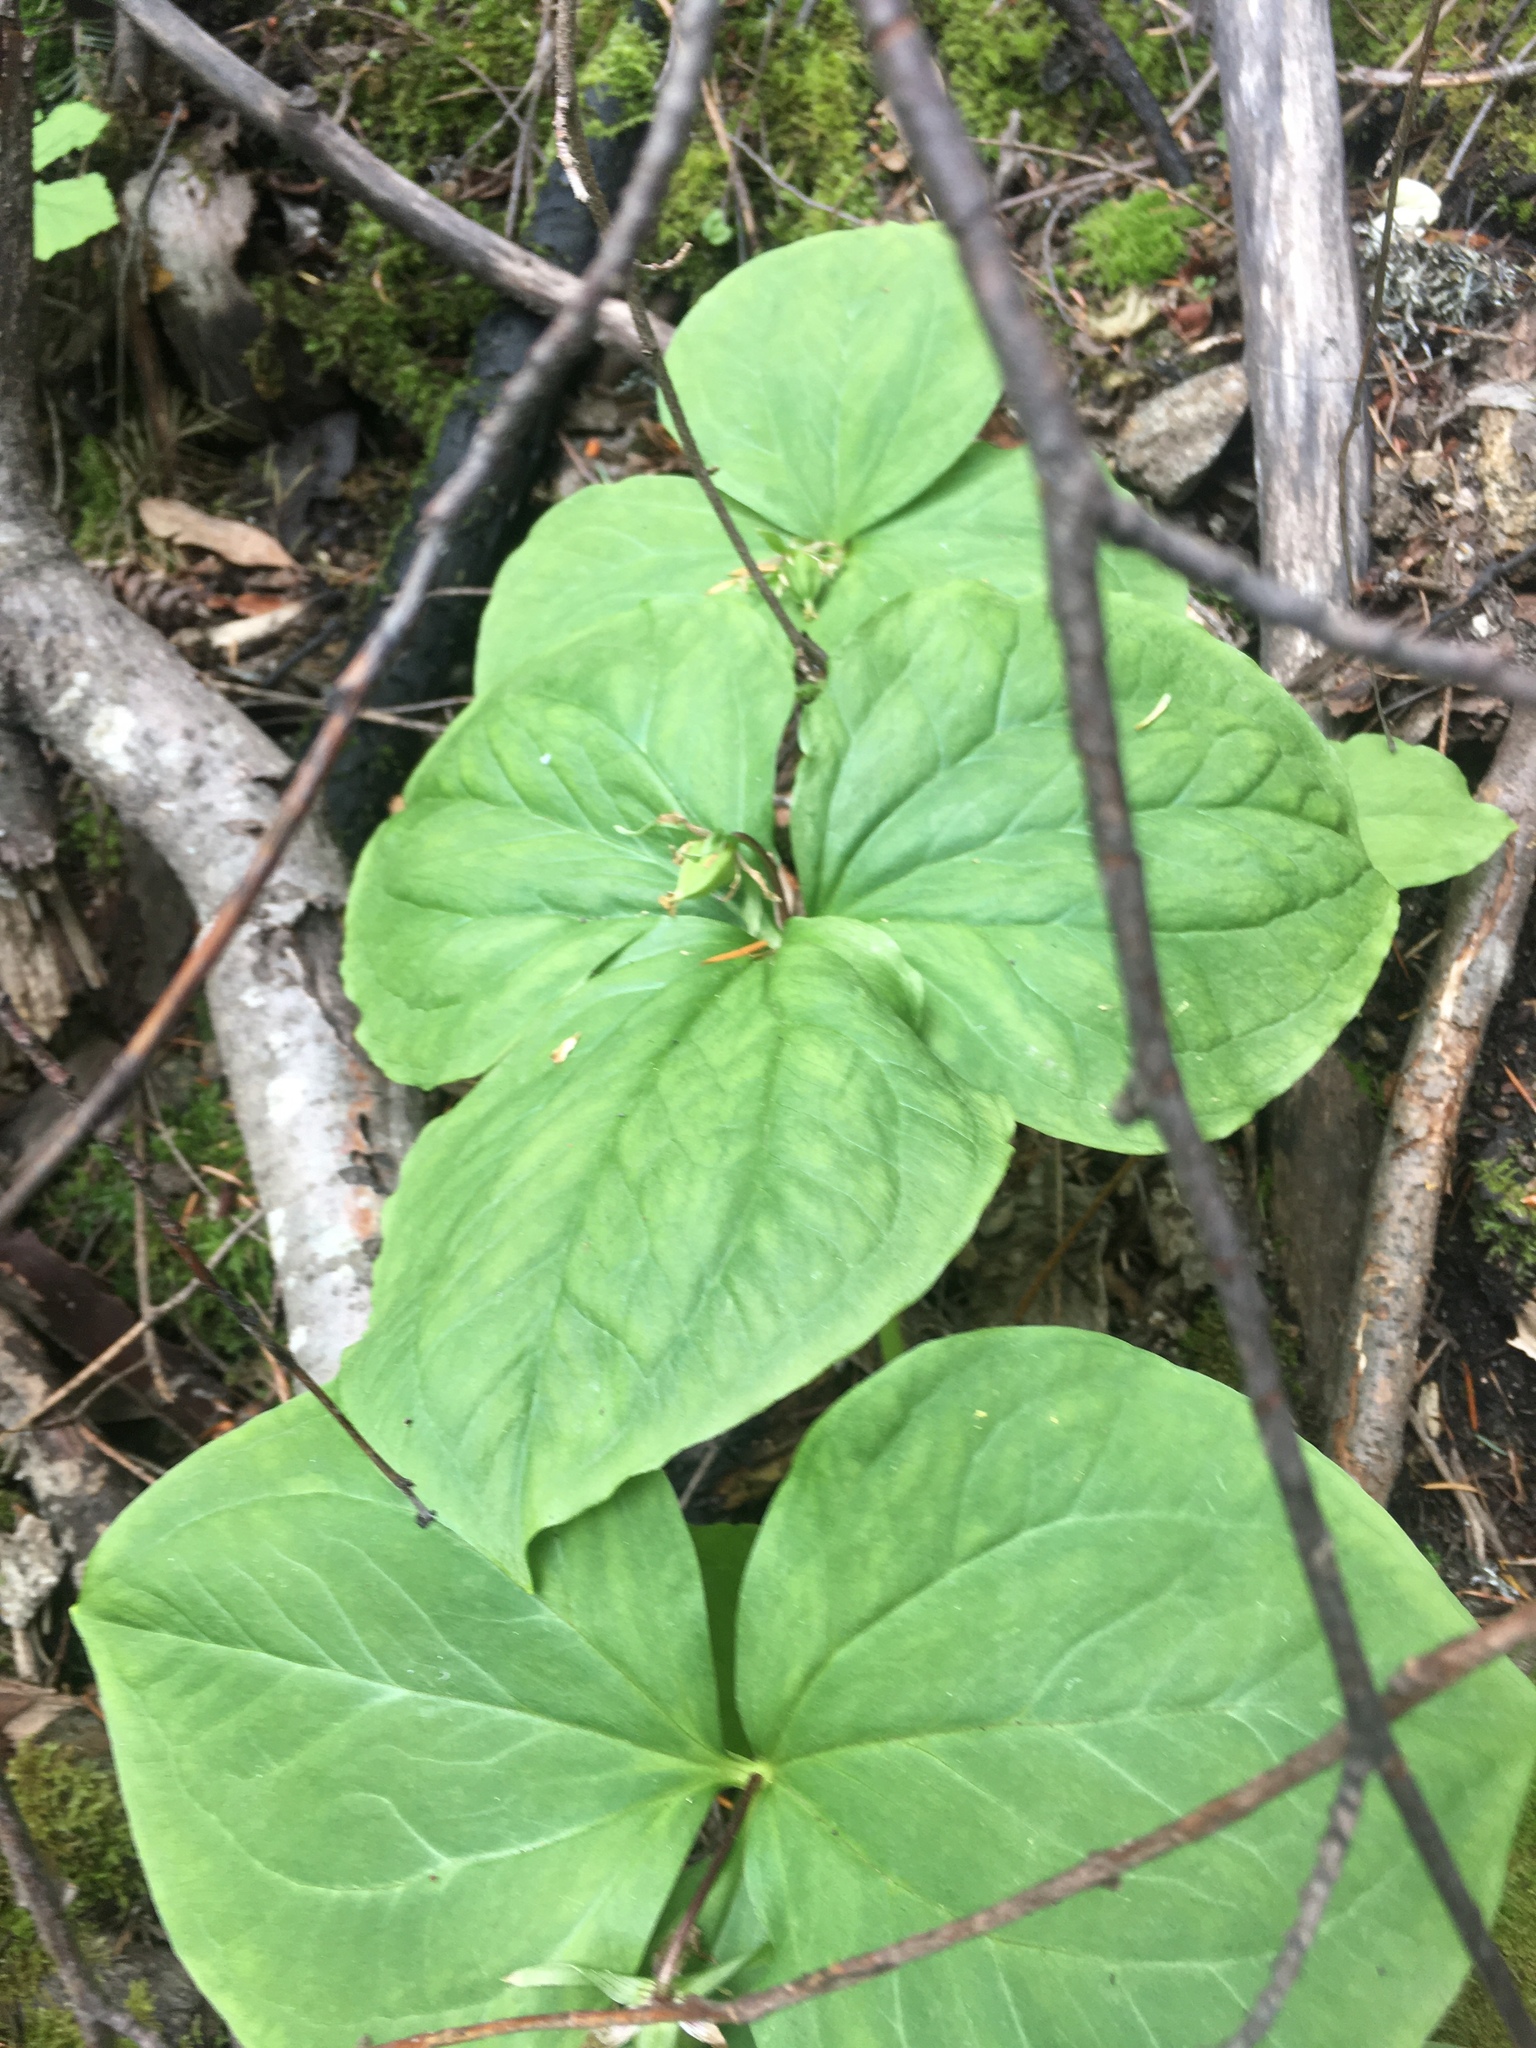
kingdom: Plantae
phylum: Tracheophyta
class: Liliopsida
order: Liliales
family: Melanthiaceae
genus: Trillium
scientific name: Trillium ovatum
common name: Pacific trillium
